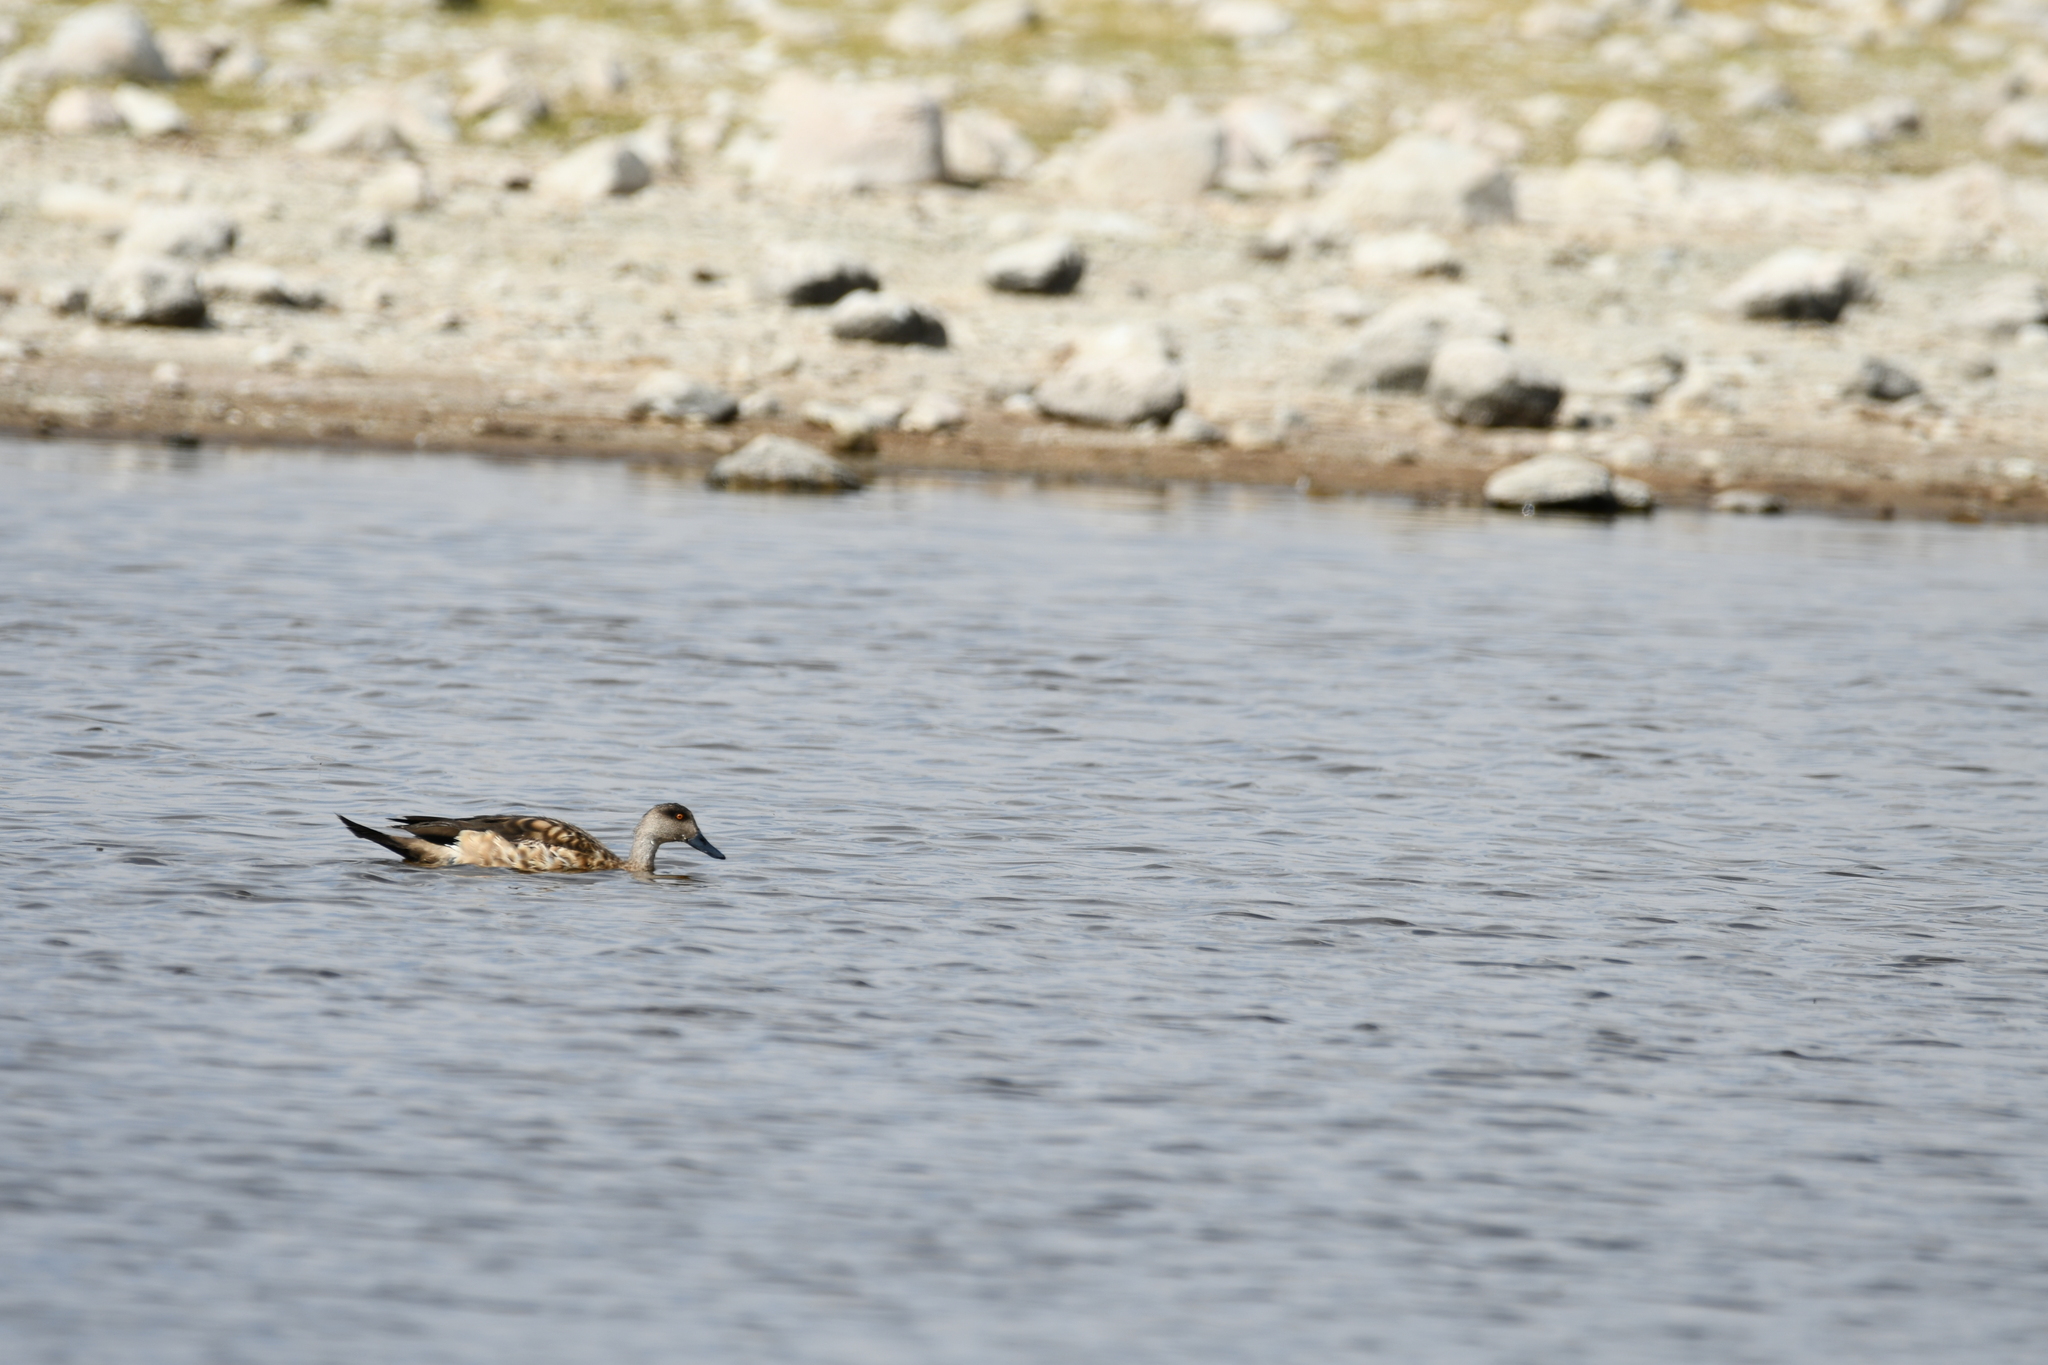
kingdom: Animalia
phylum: Chordata
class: Aves
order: Anseriformes
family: Anatidae
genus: Lophonetta
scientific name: Lophonetta specularioides
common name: Crested duck
